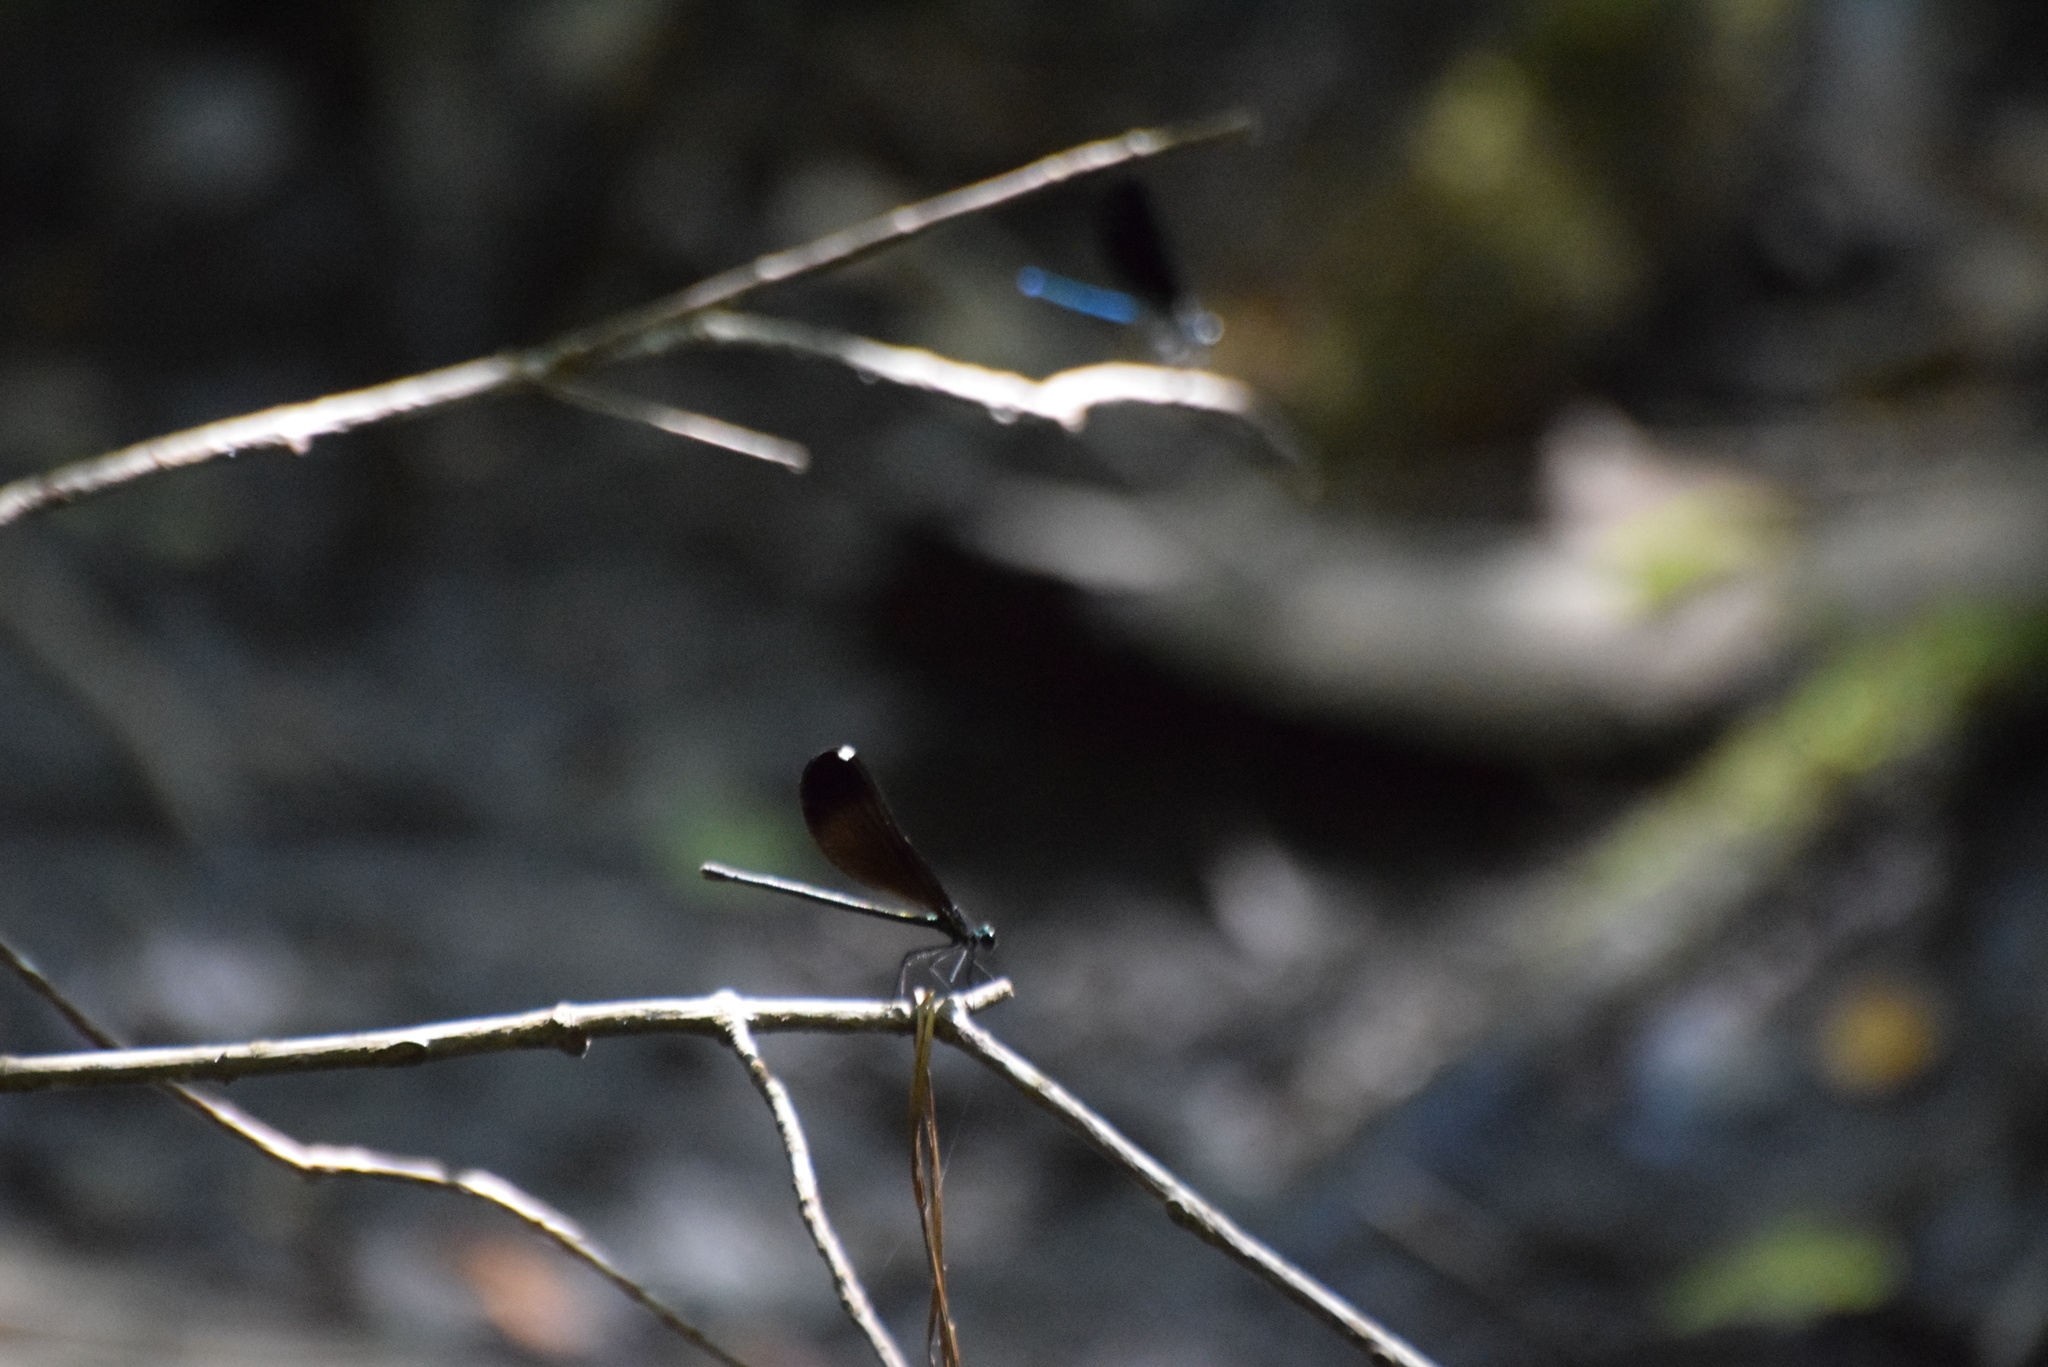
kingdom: Animalia
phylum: Arthropoda
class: Insecta
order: Odonata
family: Calopterygidae
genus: Calopteryx
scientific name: Calopteryx maculata
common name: Ebony jewelwing
